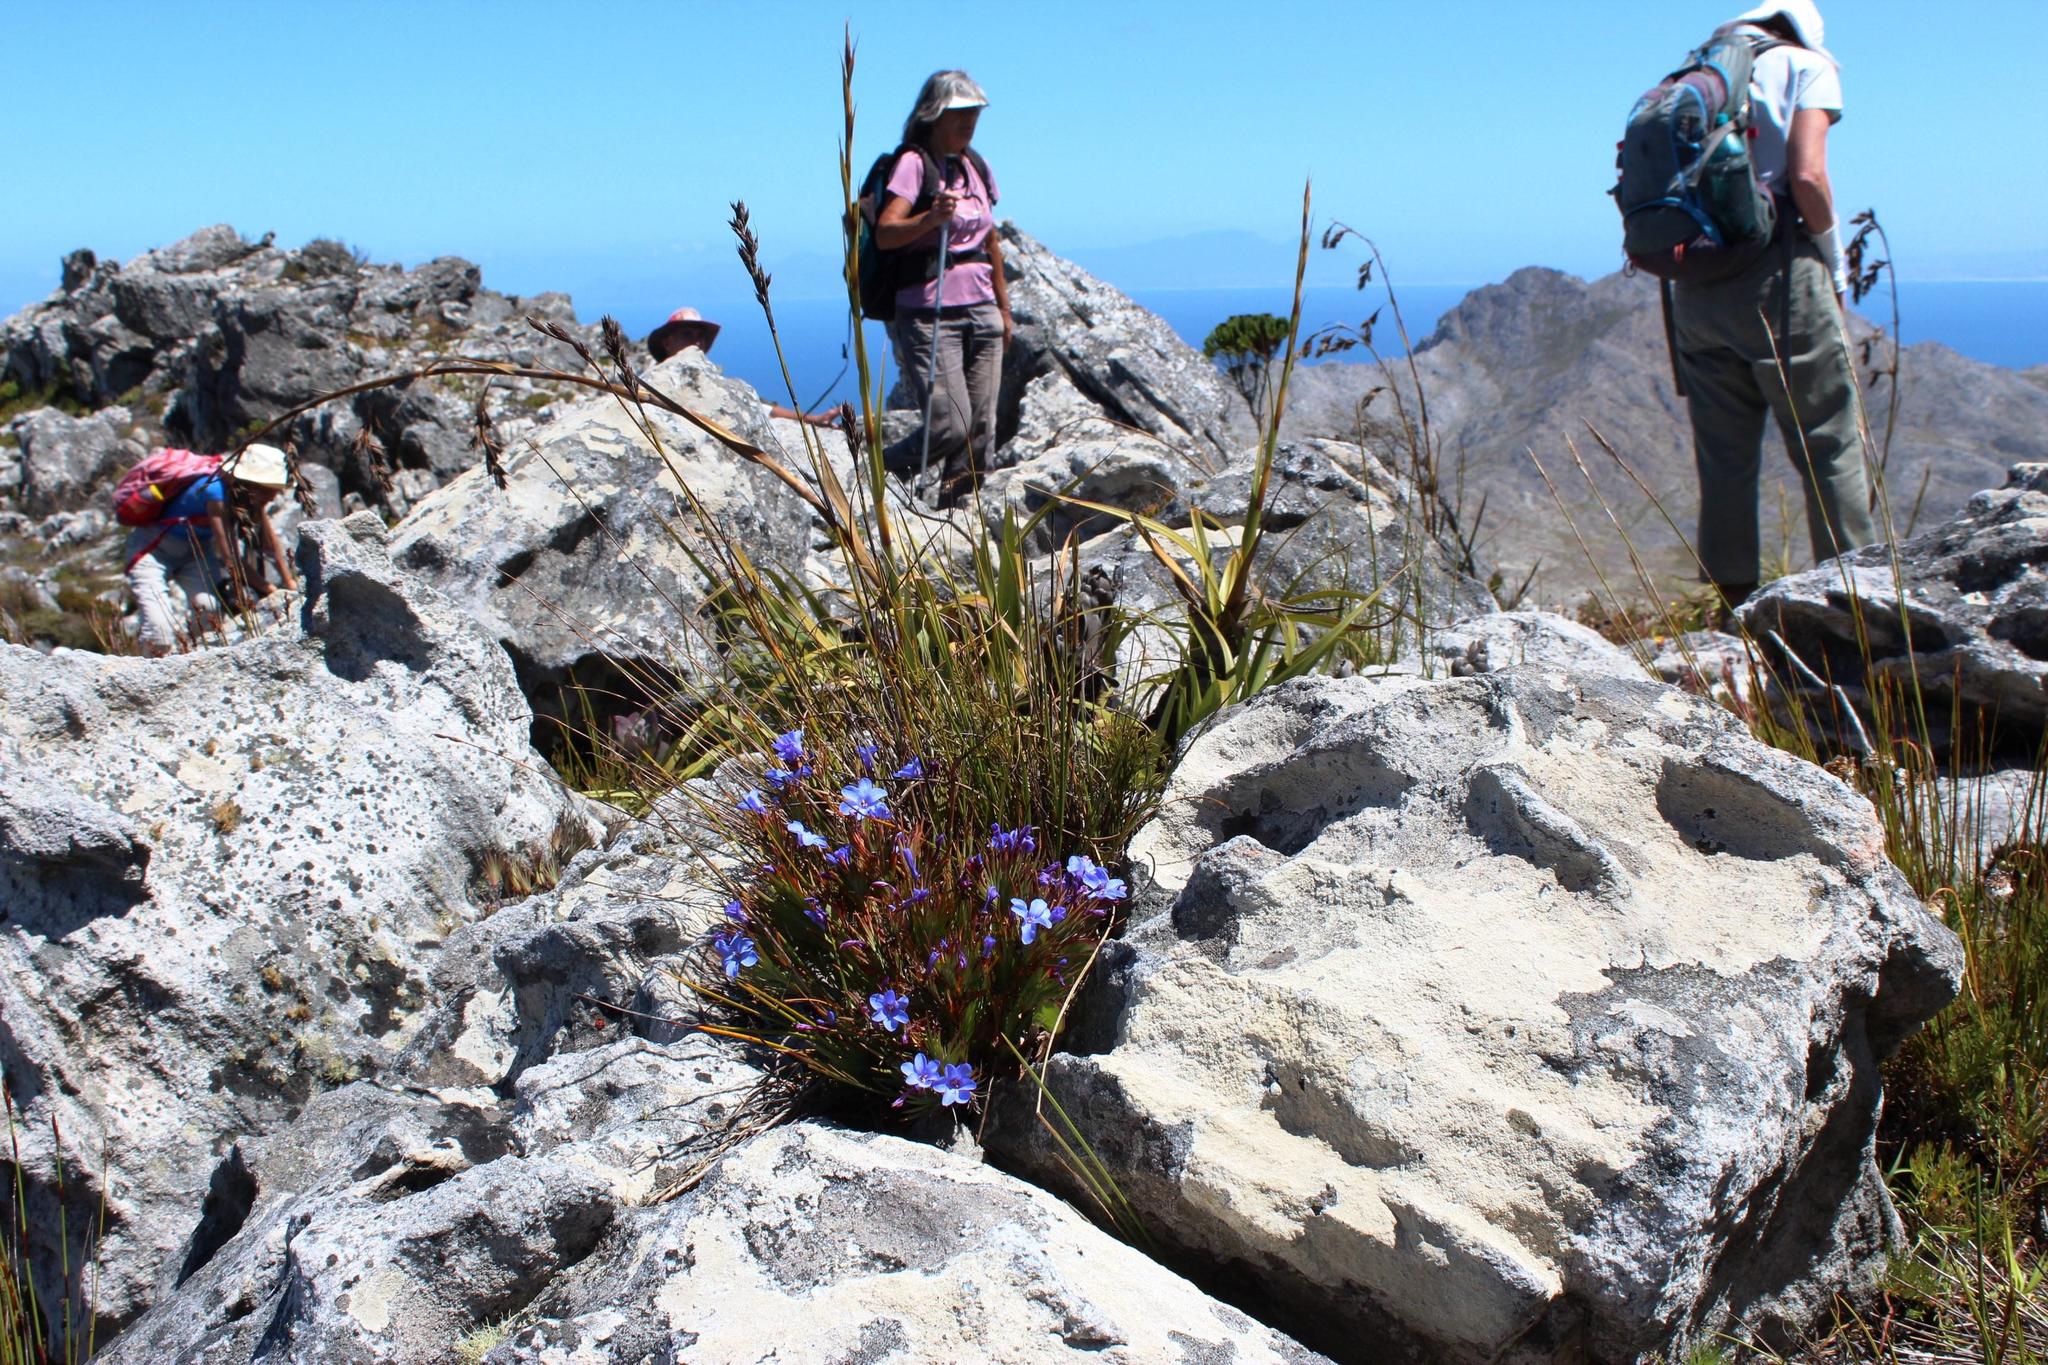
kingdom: Plantae
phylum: Tracheophyta
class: Liliopsida
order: Asparagales
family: Iridaceae
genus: Nivenia
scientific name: Nivenia levynsiae
